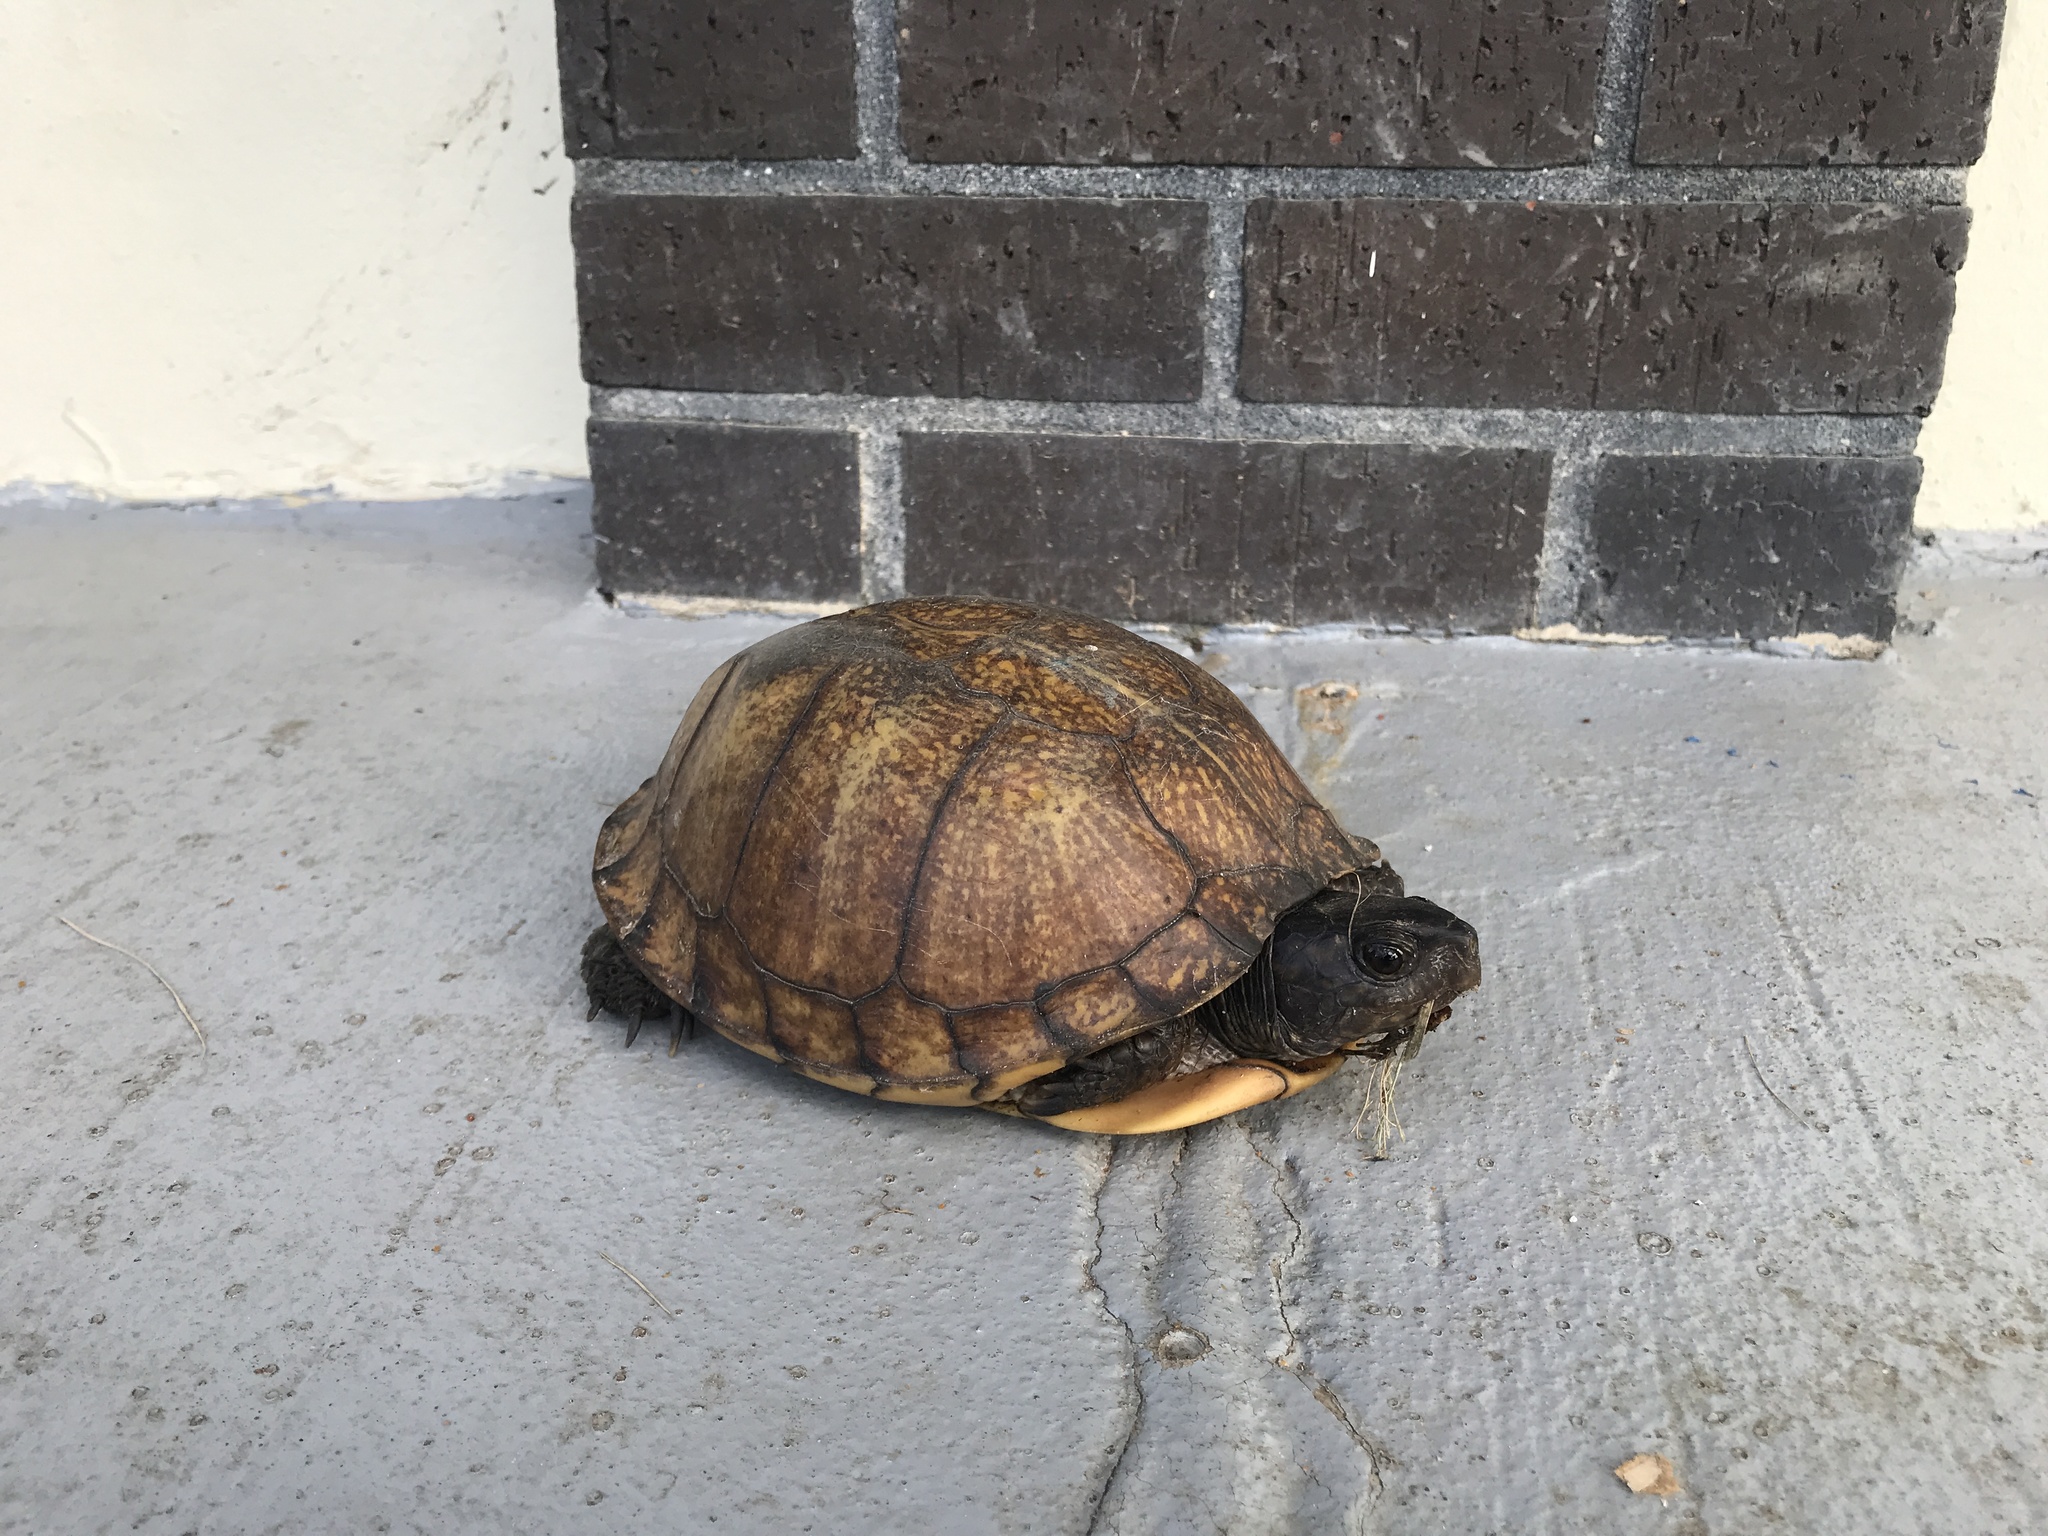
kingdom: Animalia
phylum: Chordata
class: Testudines
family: Emydidae
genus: Terrapene
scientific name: Terrapene carolina
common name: Common box turtle
